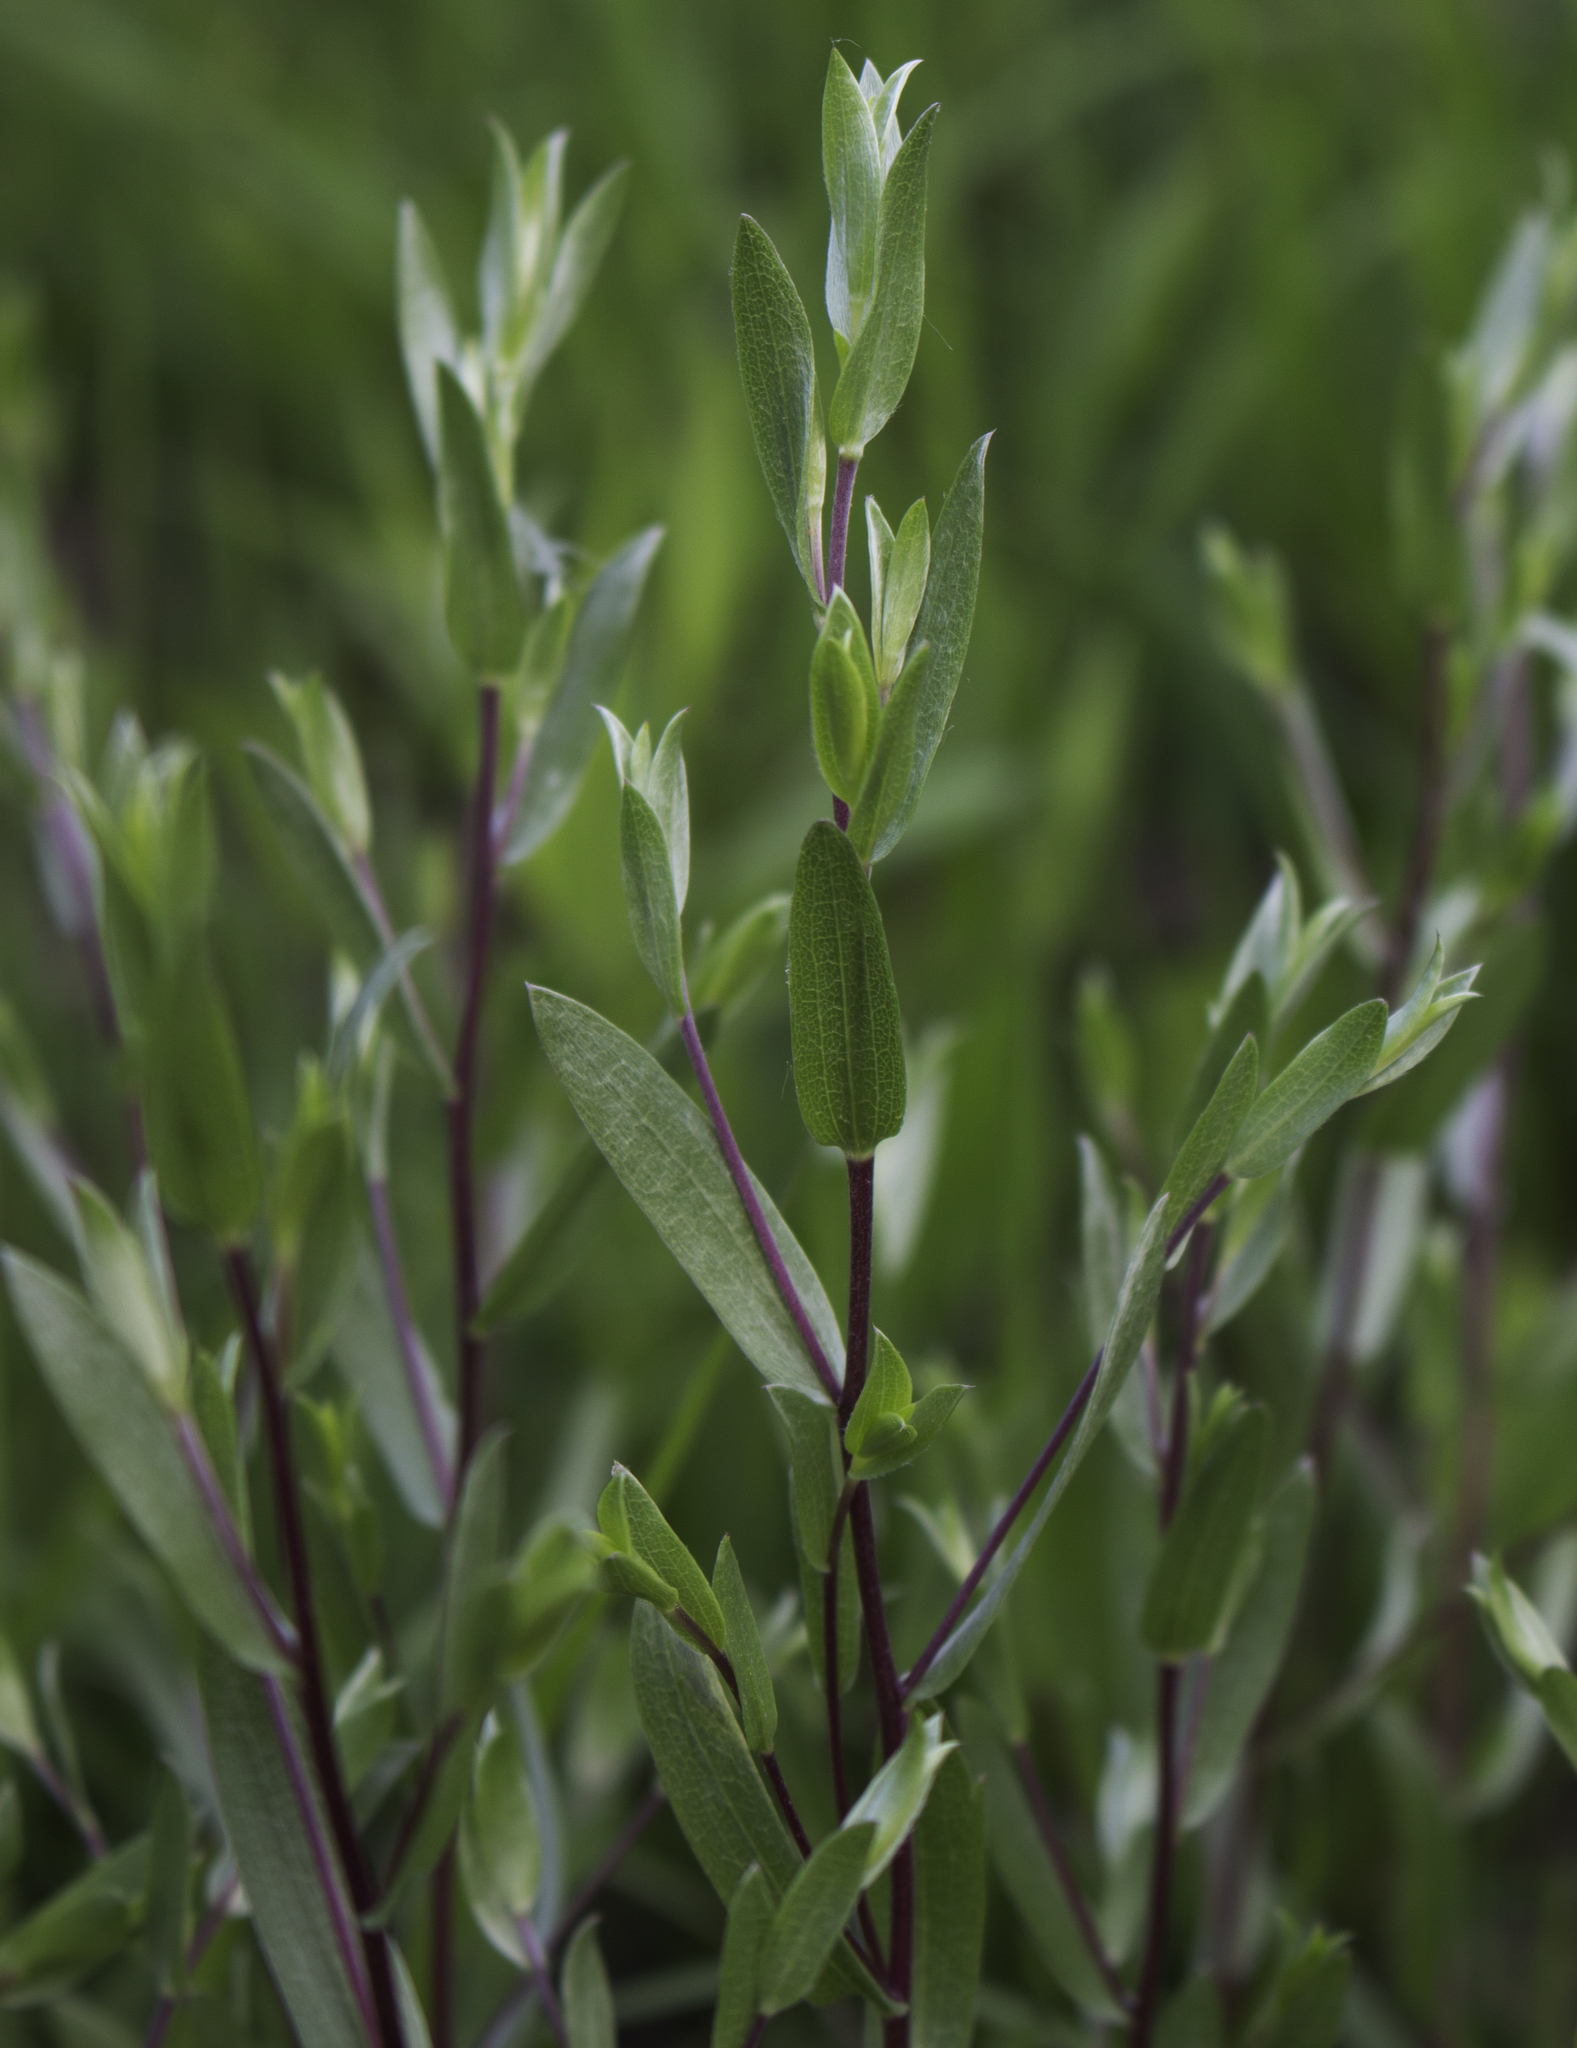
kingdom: Plantae
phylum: Tracheophyta
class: Magnoliopsida
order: Asterales
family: Asteraceae
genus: Symphyotrichum
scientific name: Symphyotrichum sericeum
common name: Silky aster
